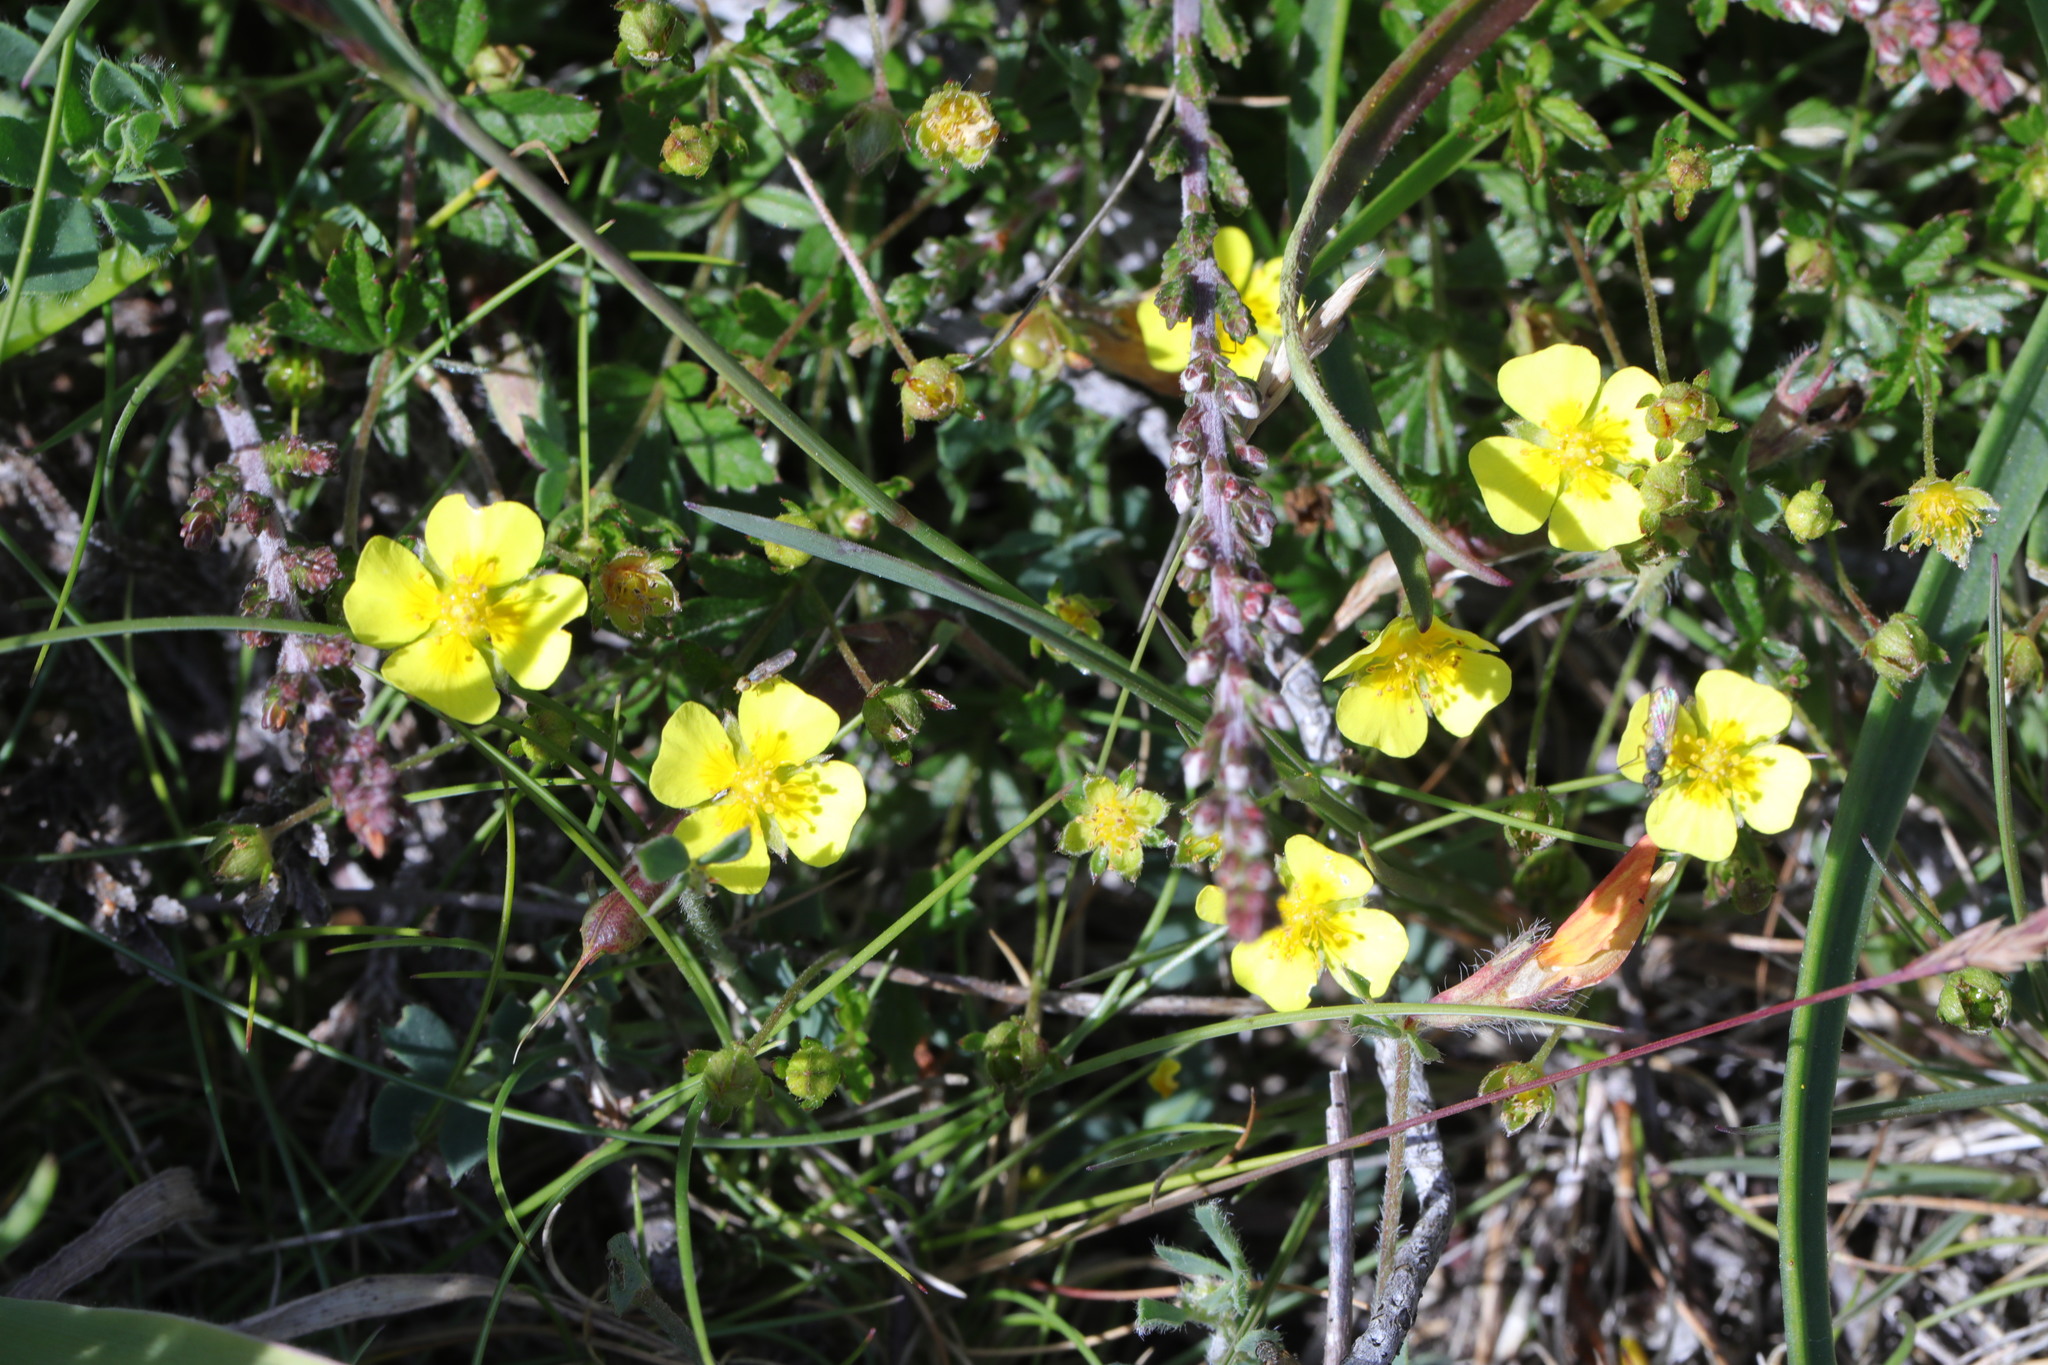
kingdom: Plantae
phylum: Tracheophyta
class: Magnoliopsida
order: Rosales
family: Rosaceae
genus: Potentilla
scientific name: Potentilla erecta
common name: Tormentil
